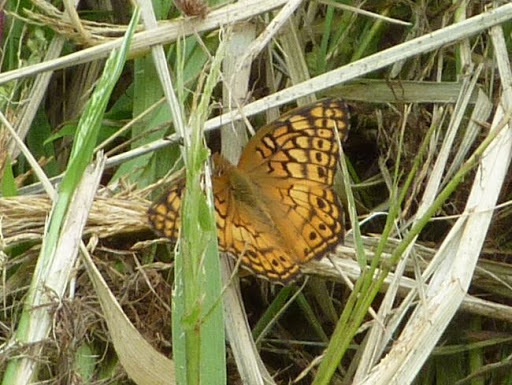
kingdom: Animalia
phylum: Arthropoda
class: Insecta
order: Lepidoptera
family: Nymphalidae
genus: Euptoieta
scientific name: Euptoieta claudia
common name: Variegated fritillary
